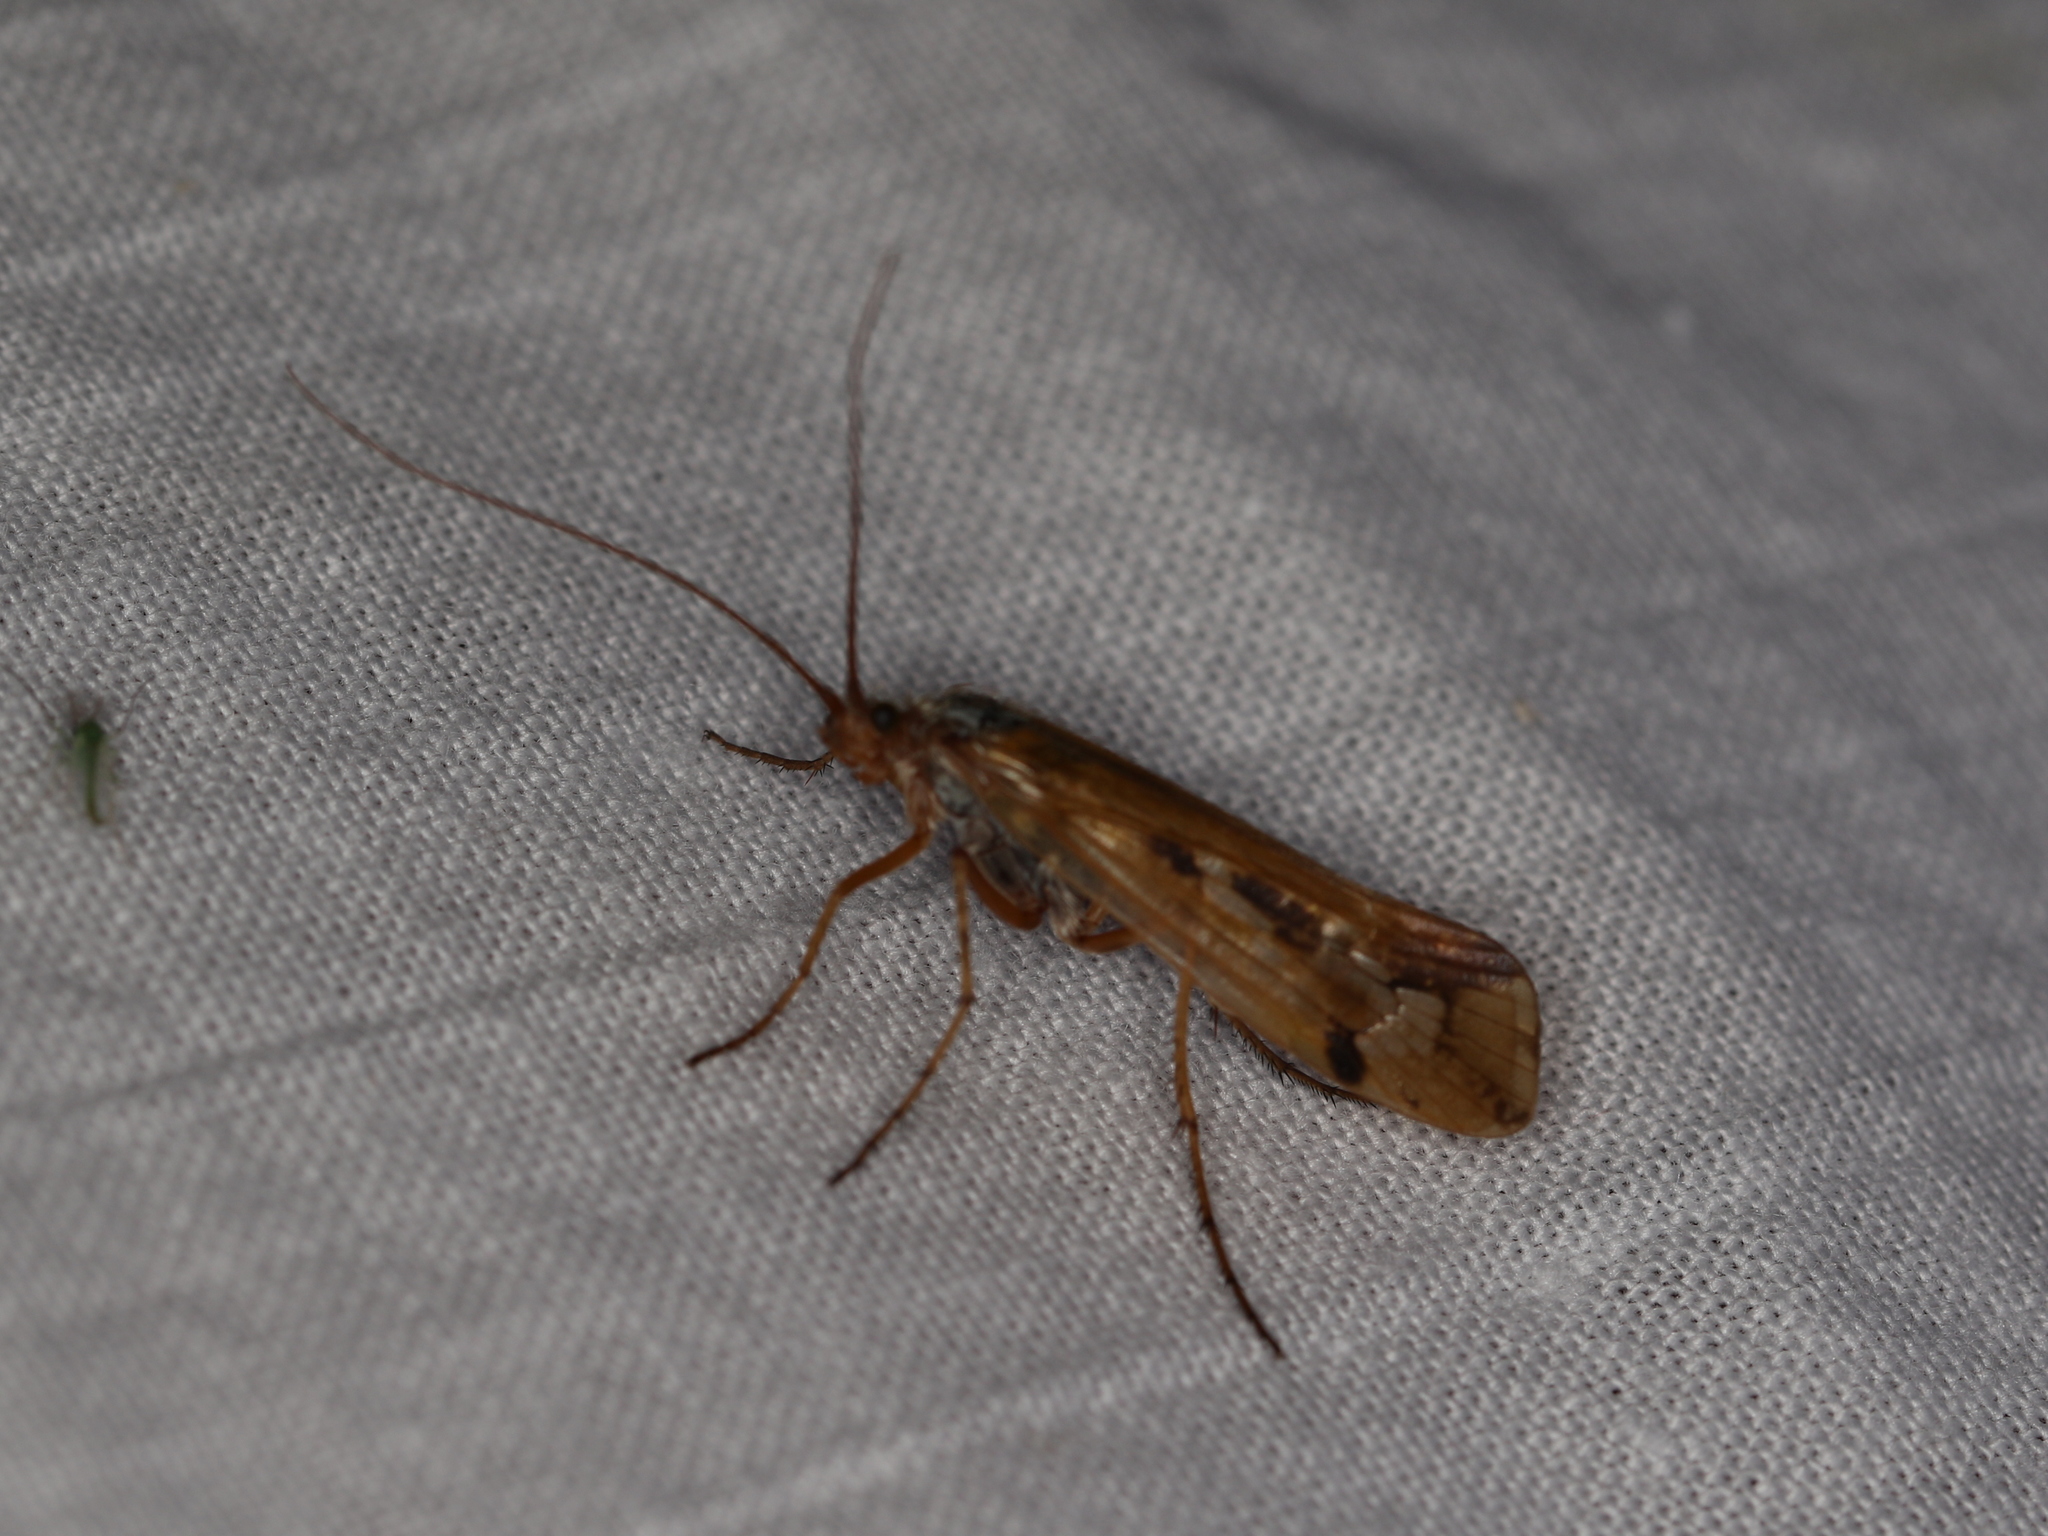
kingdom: Animalia
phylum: Arthropoda
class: Insecta
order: Trichoptera
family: Limnephilidae
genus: Limnephilus
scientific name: Limnephilus binotatus
